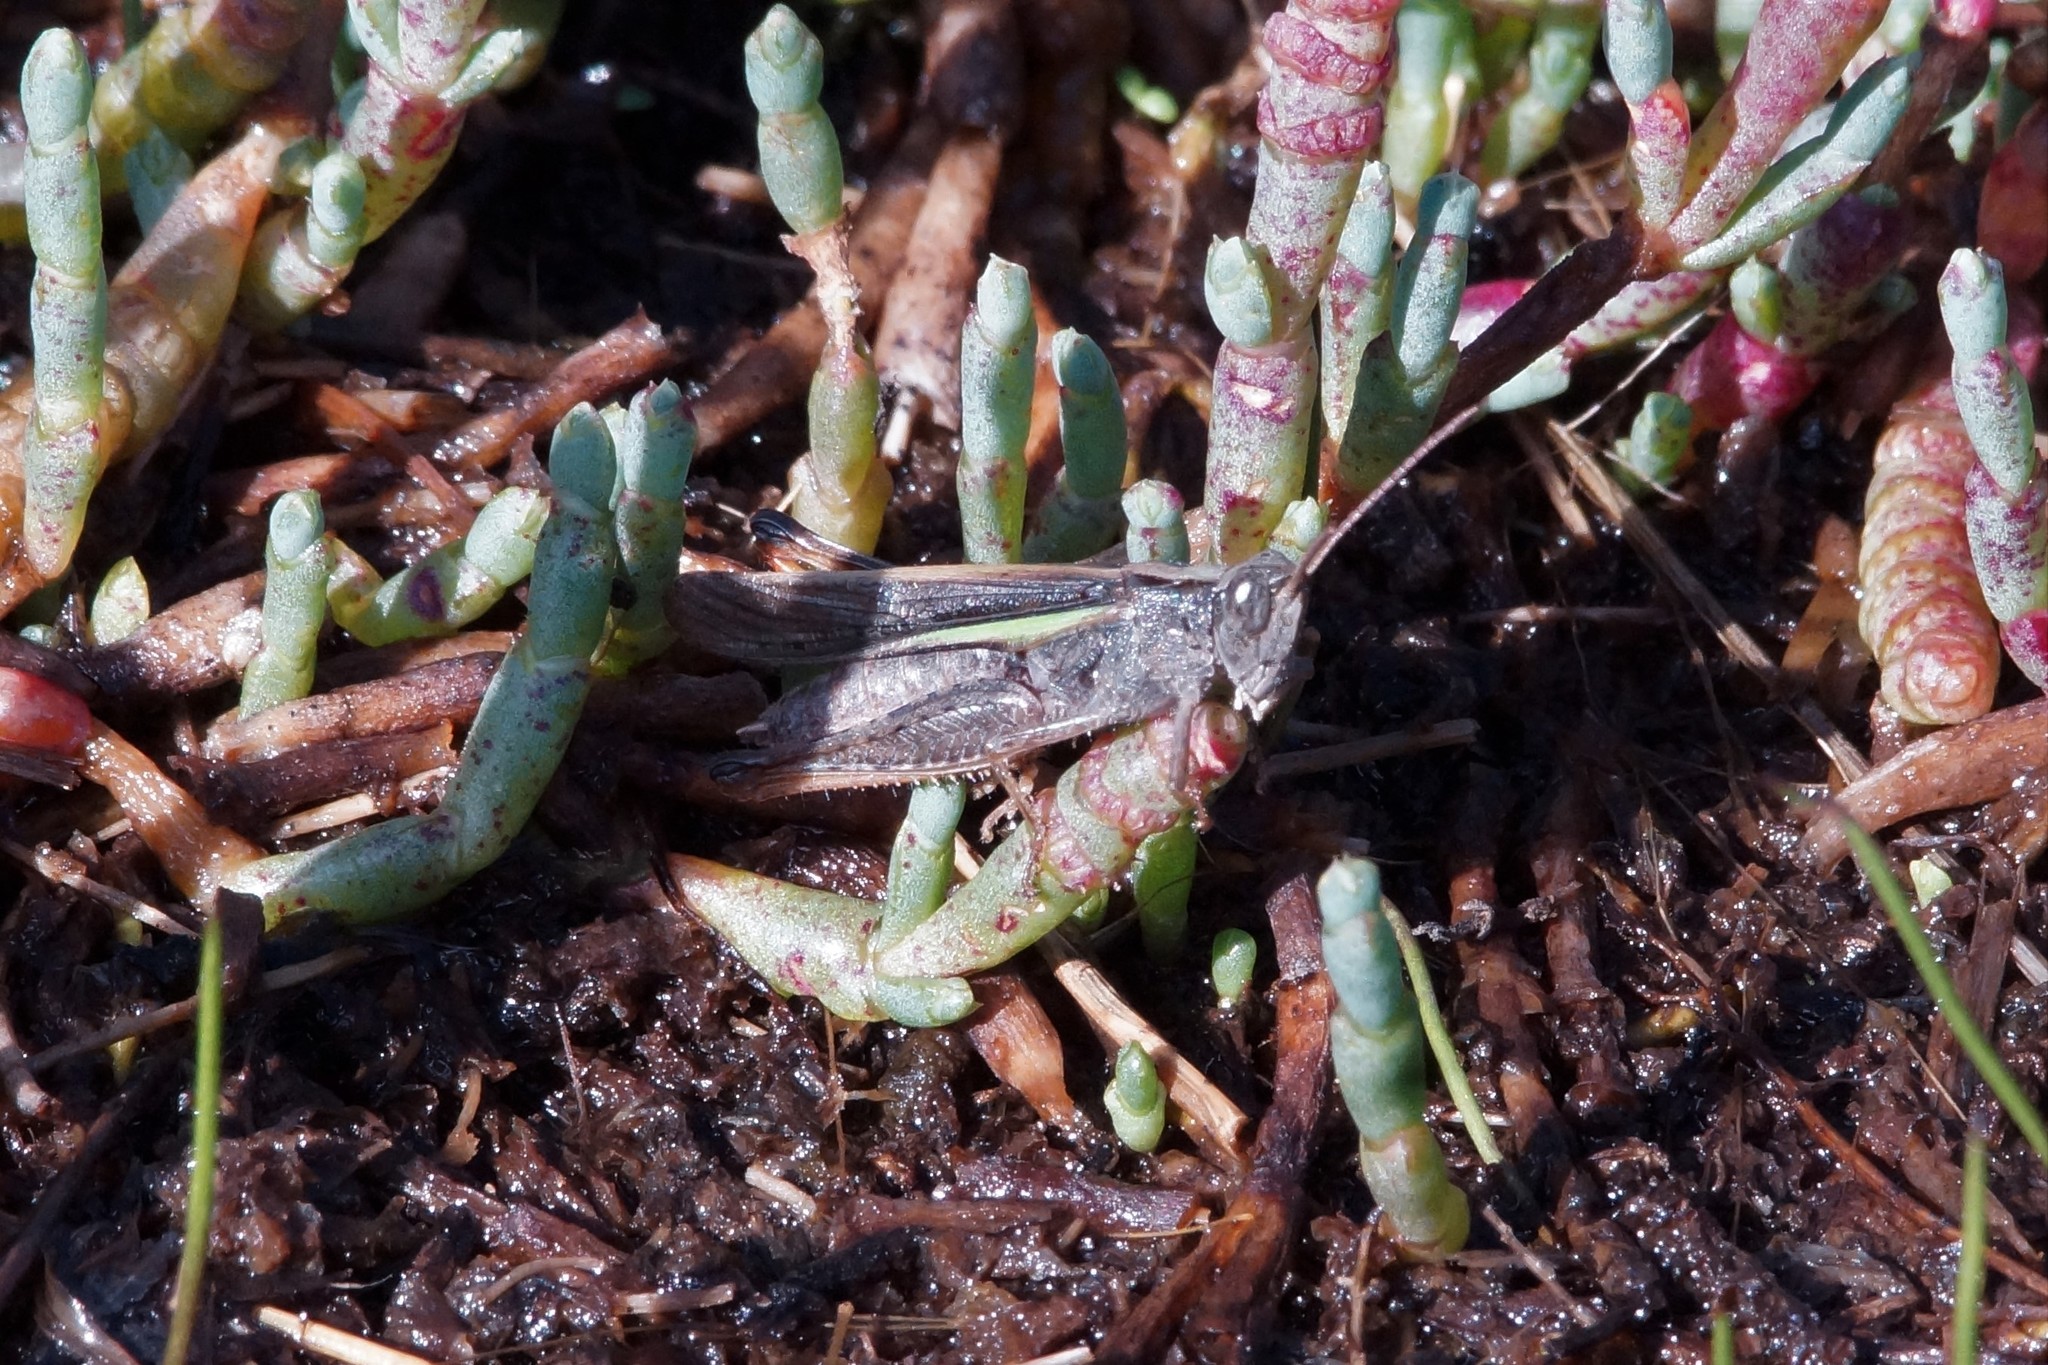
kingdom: Animalia
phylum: Arthropoda
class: Insecta
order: Orthoptera
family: Acrididae
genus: Schizobothrus
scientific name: Schizobothrus flavovittatus
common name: Disappearing grasshopper
